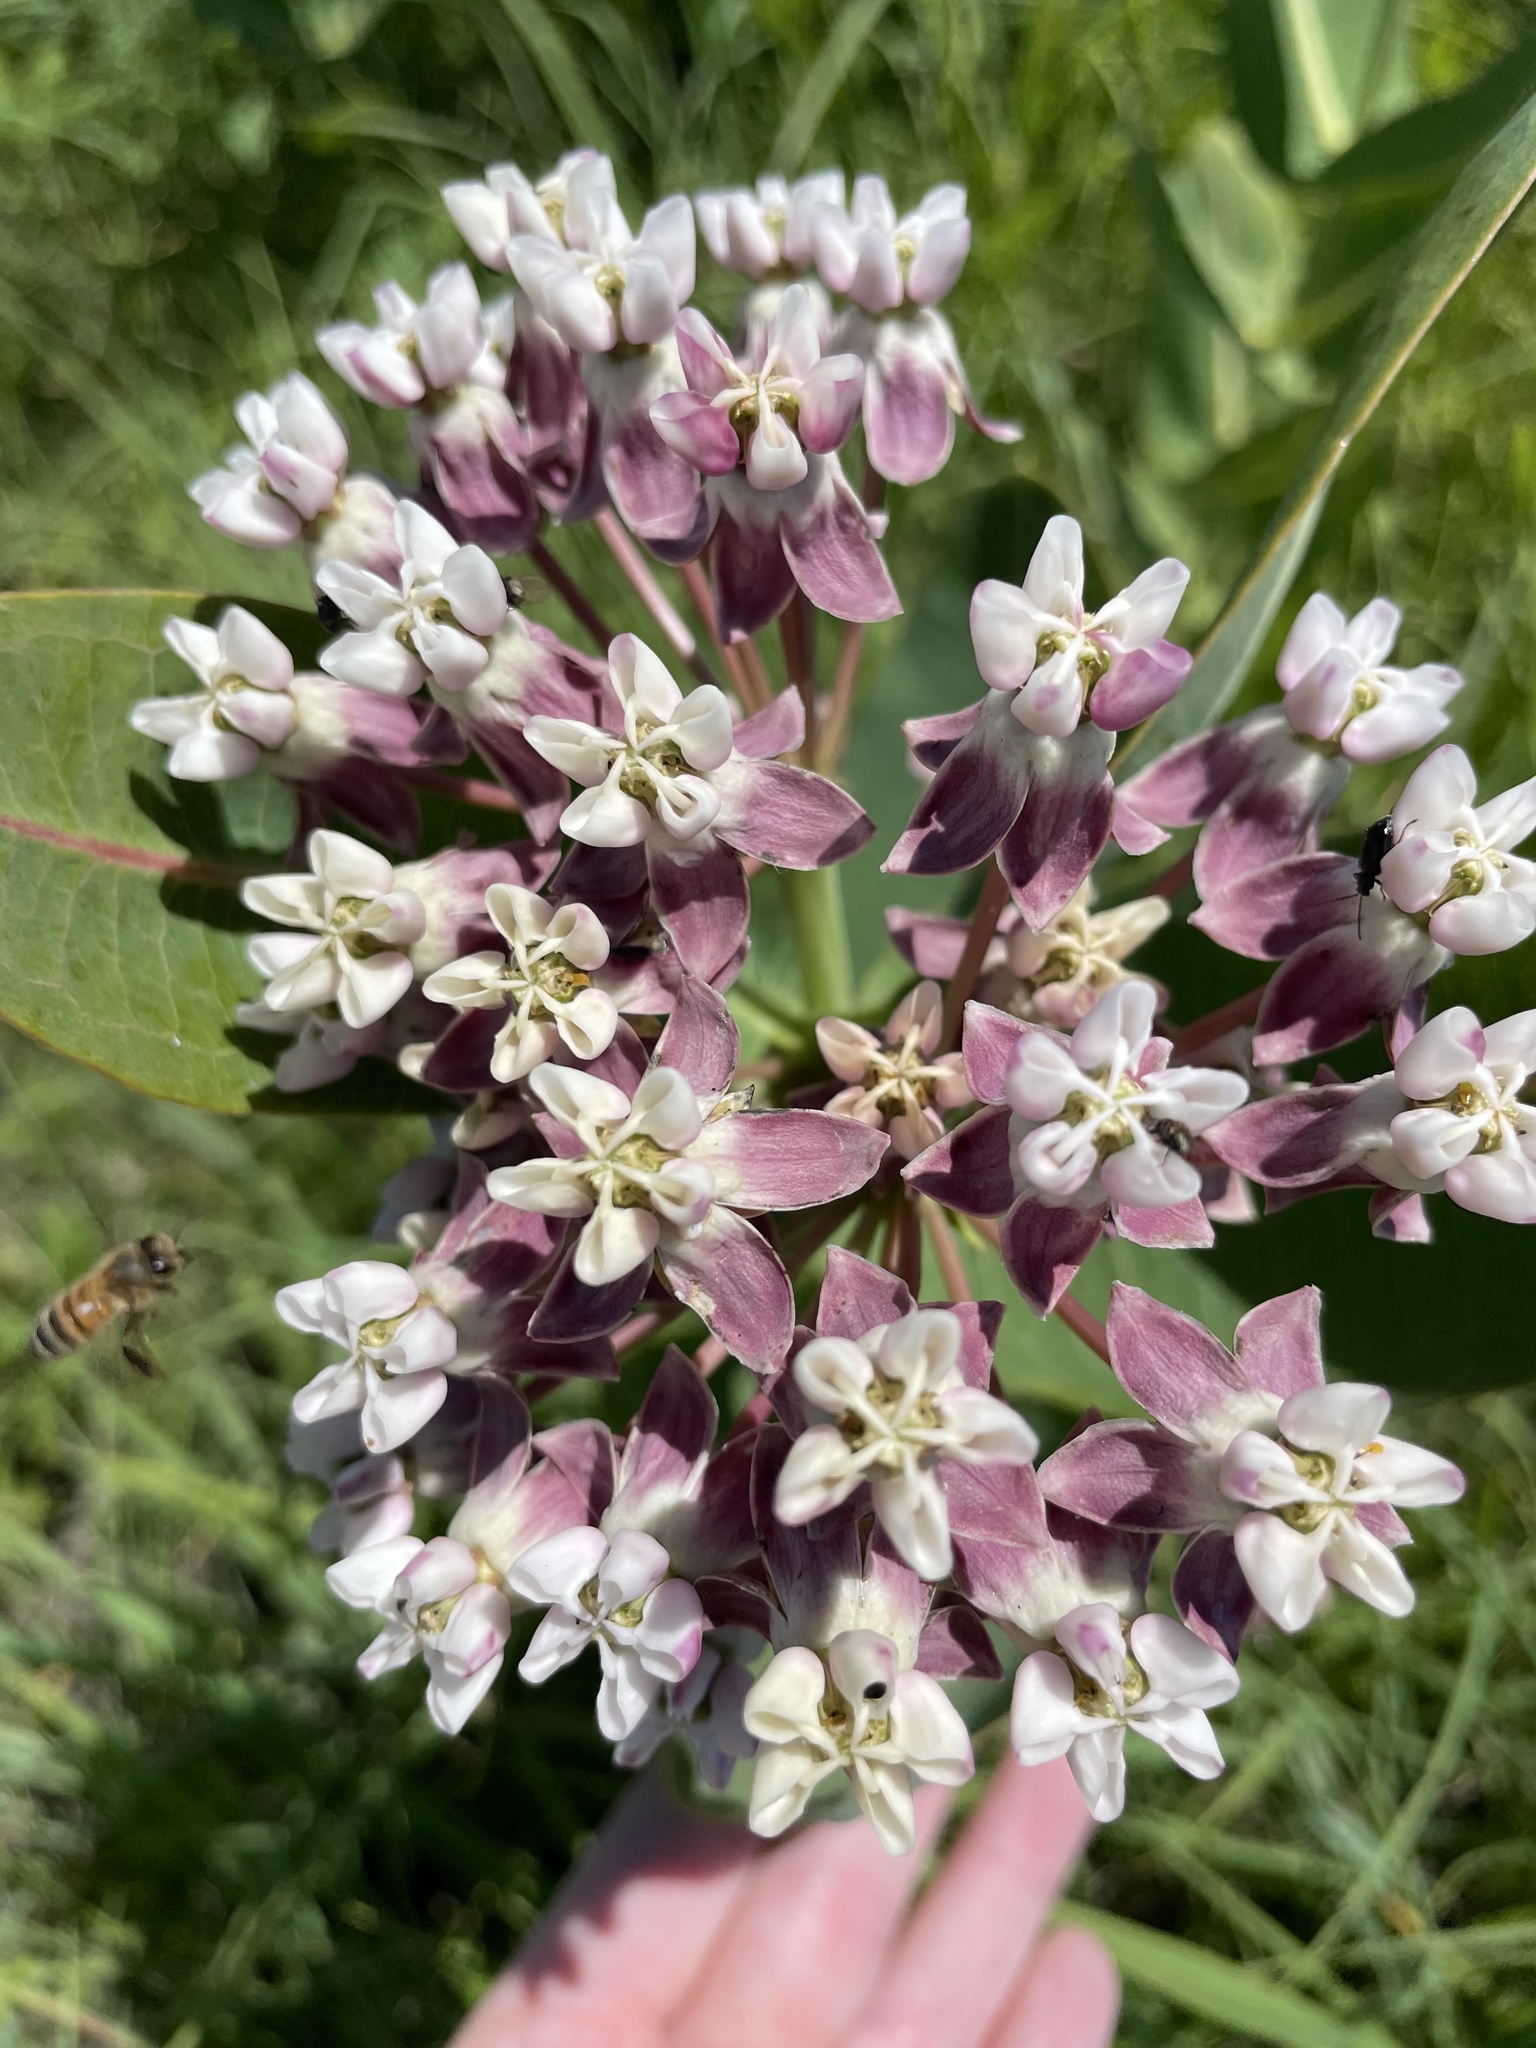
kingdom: Plantae
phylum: Tracheophyta
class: Magnoliopsida
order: Gentianales
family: Apocynaceae
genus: Asclepias
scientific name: Asclepias sullivantii
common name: Prairie milkweed
